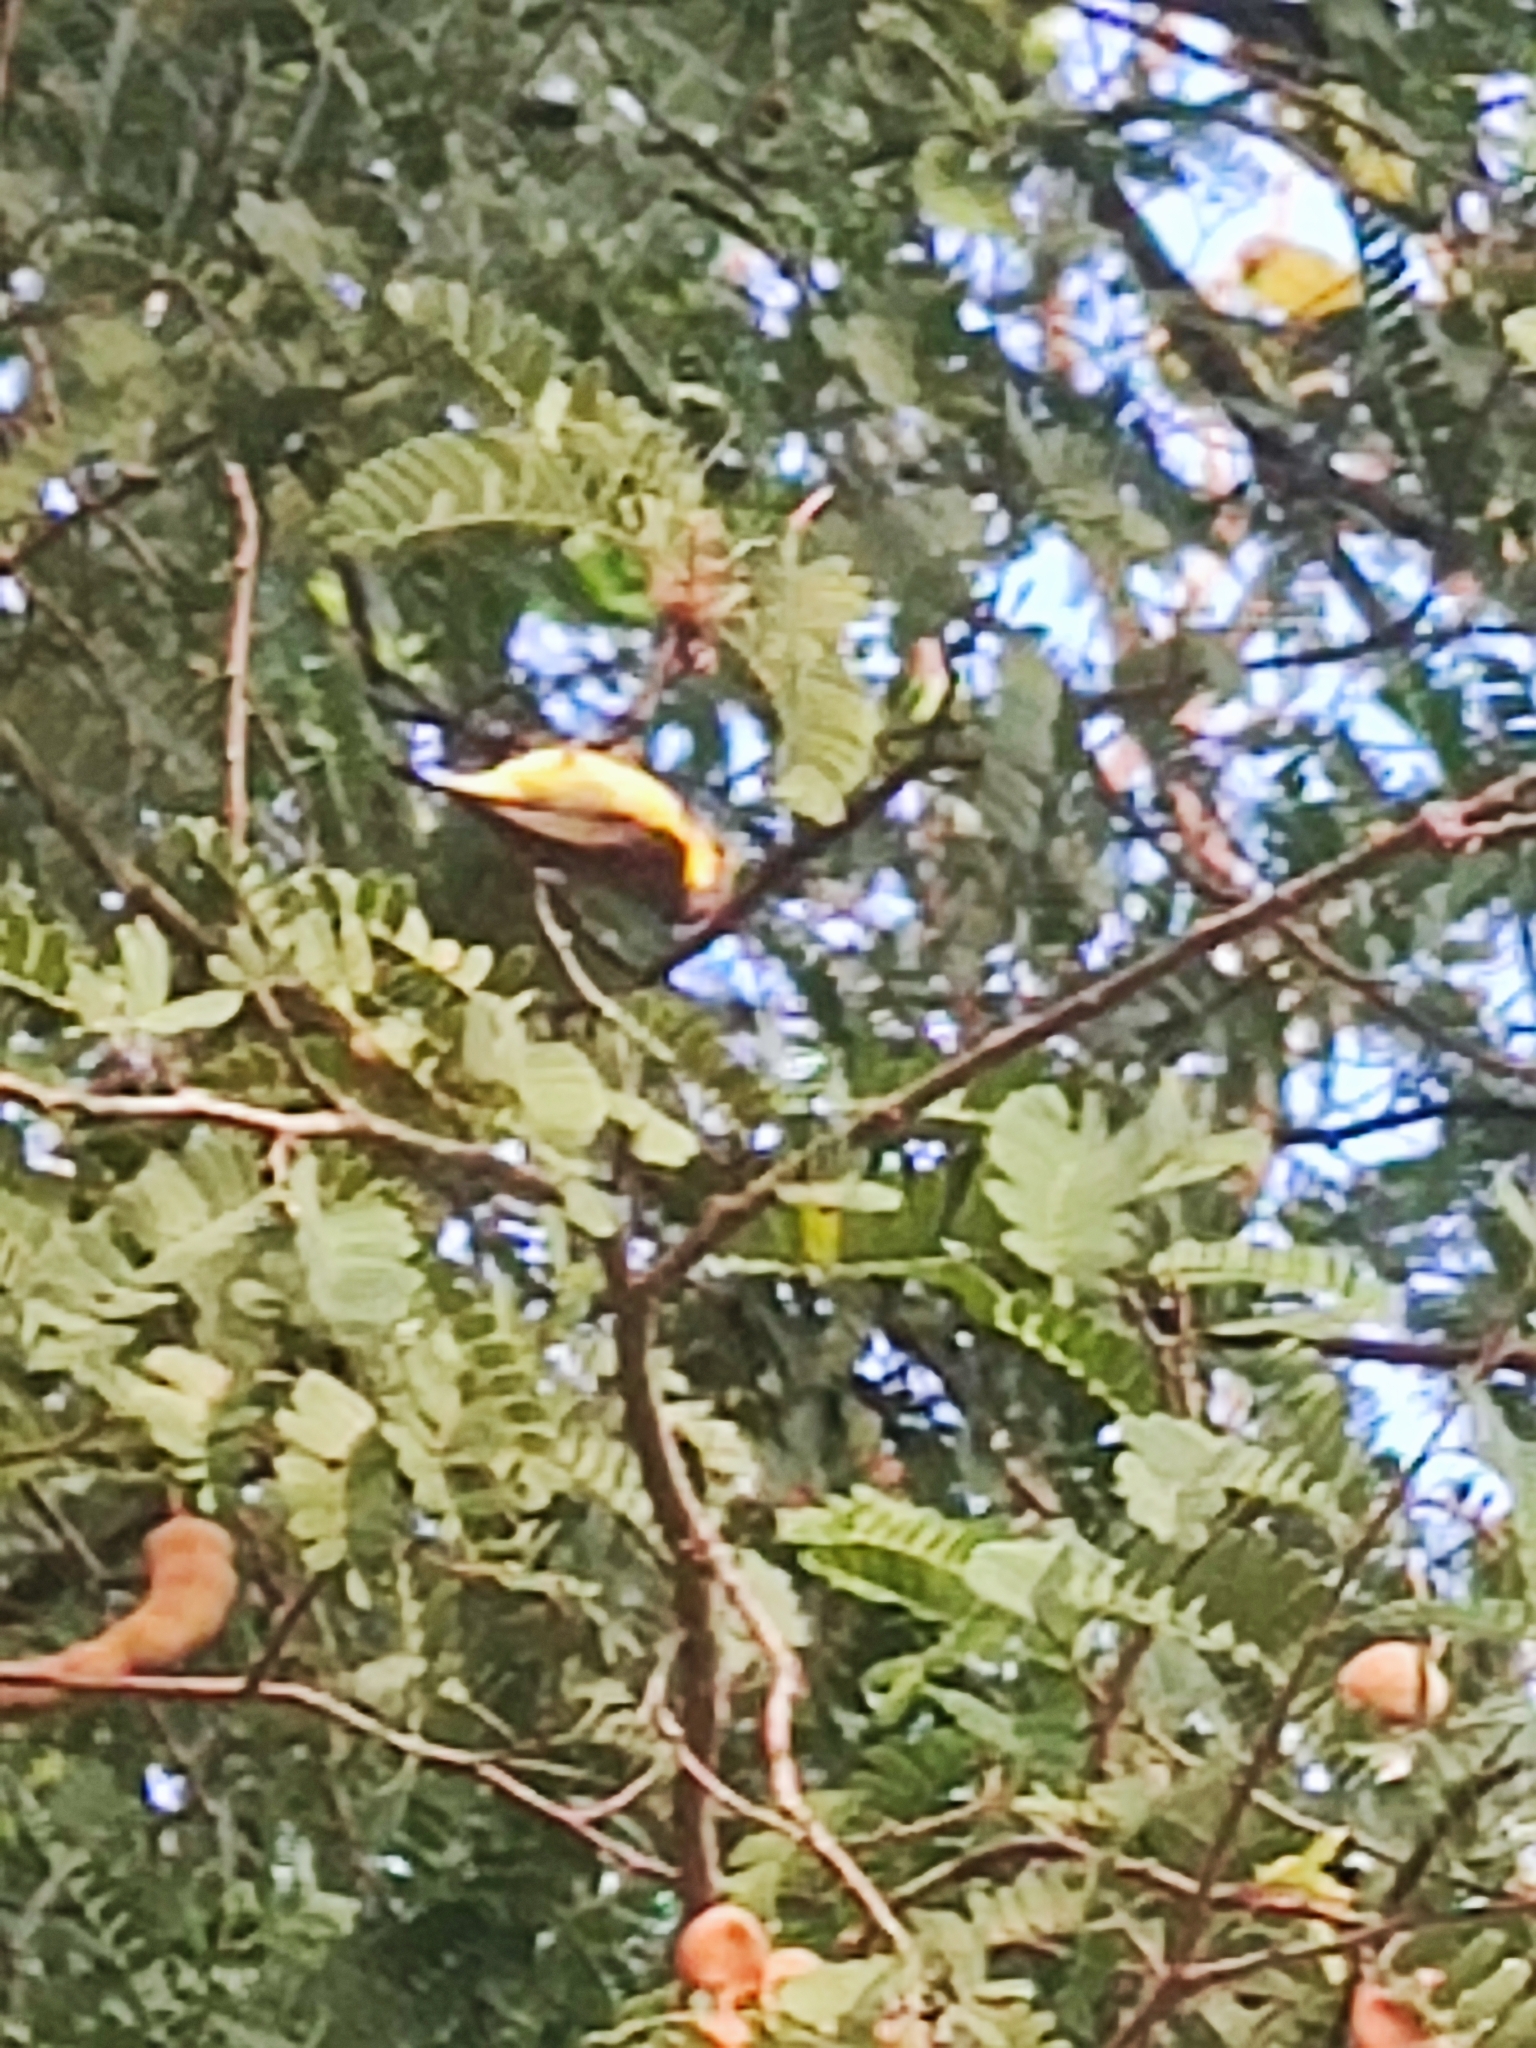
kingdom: Animalia
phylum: Chordata
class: Aves
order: Passeriformes
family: Nectariniidae
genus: Cinnyris
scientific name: Cinnyris
